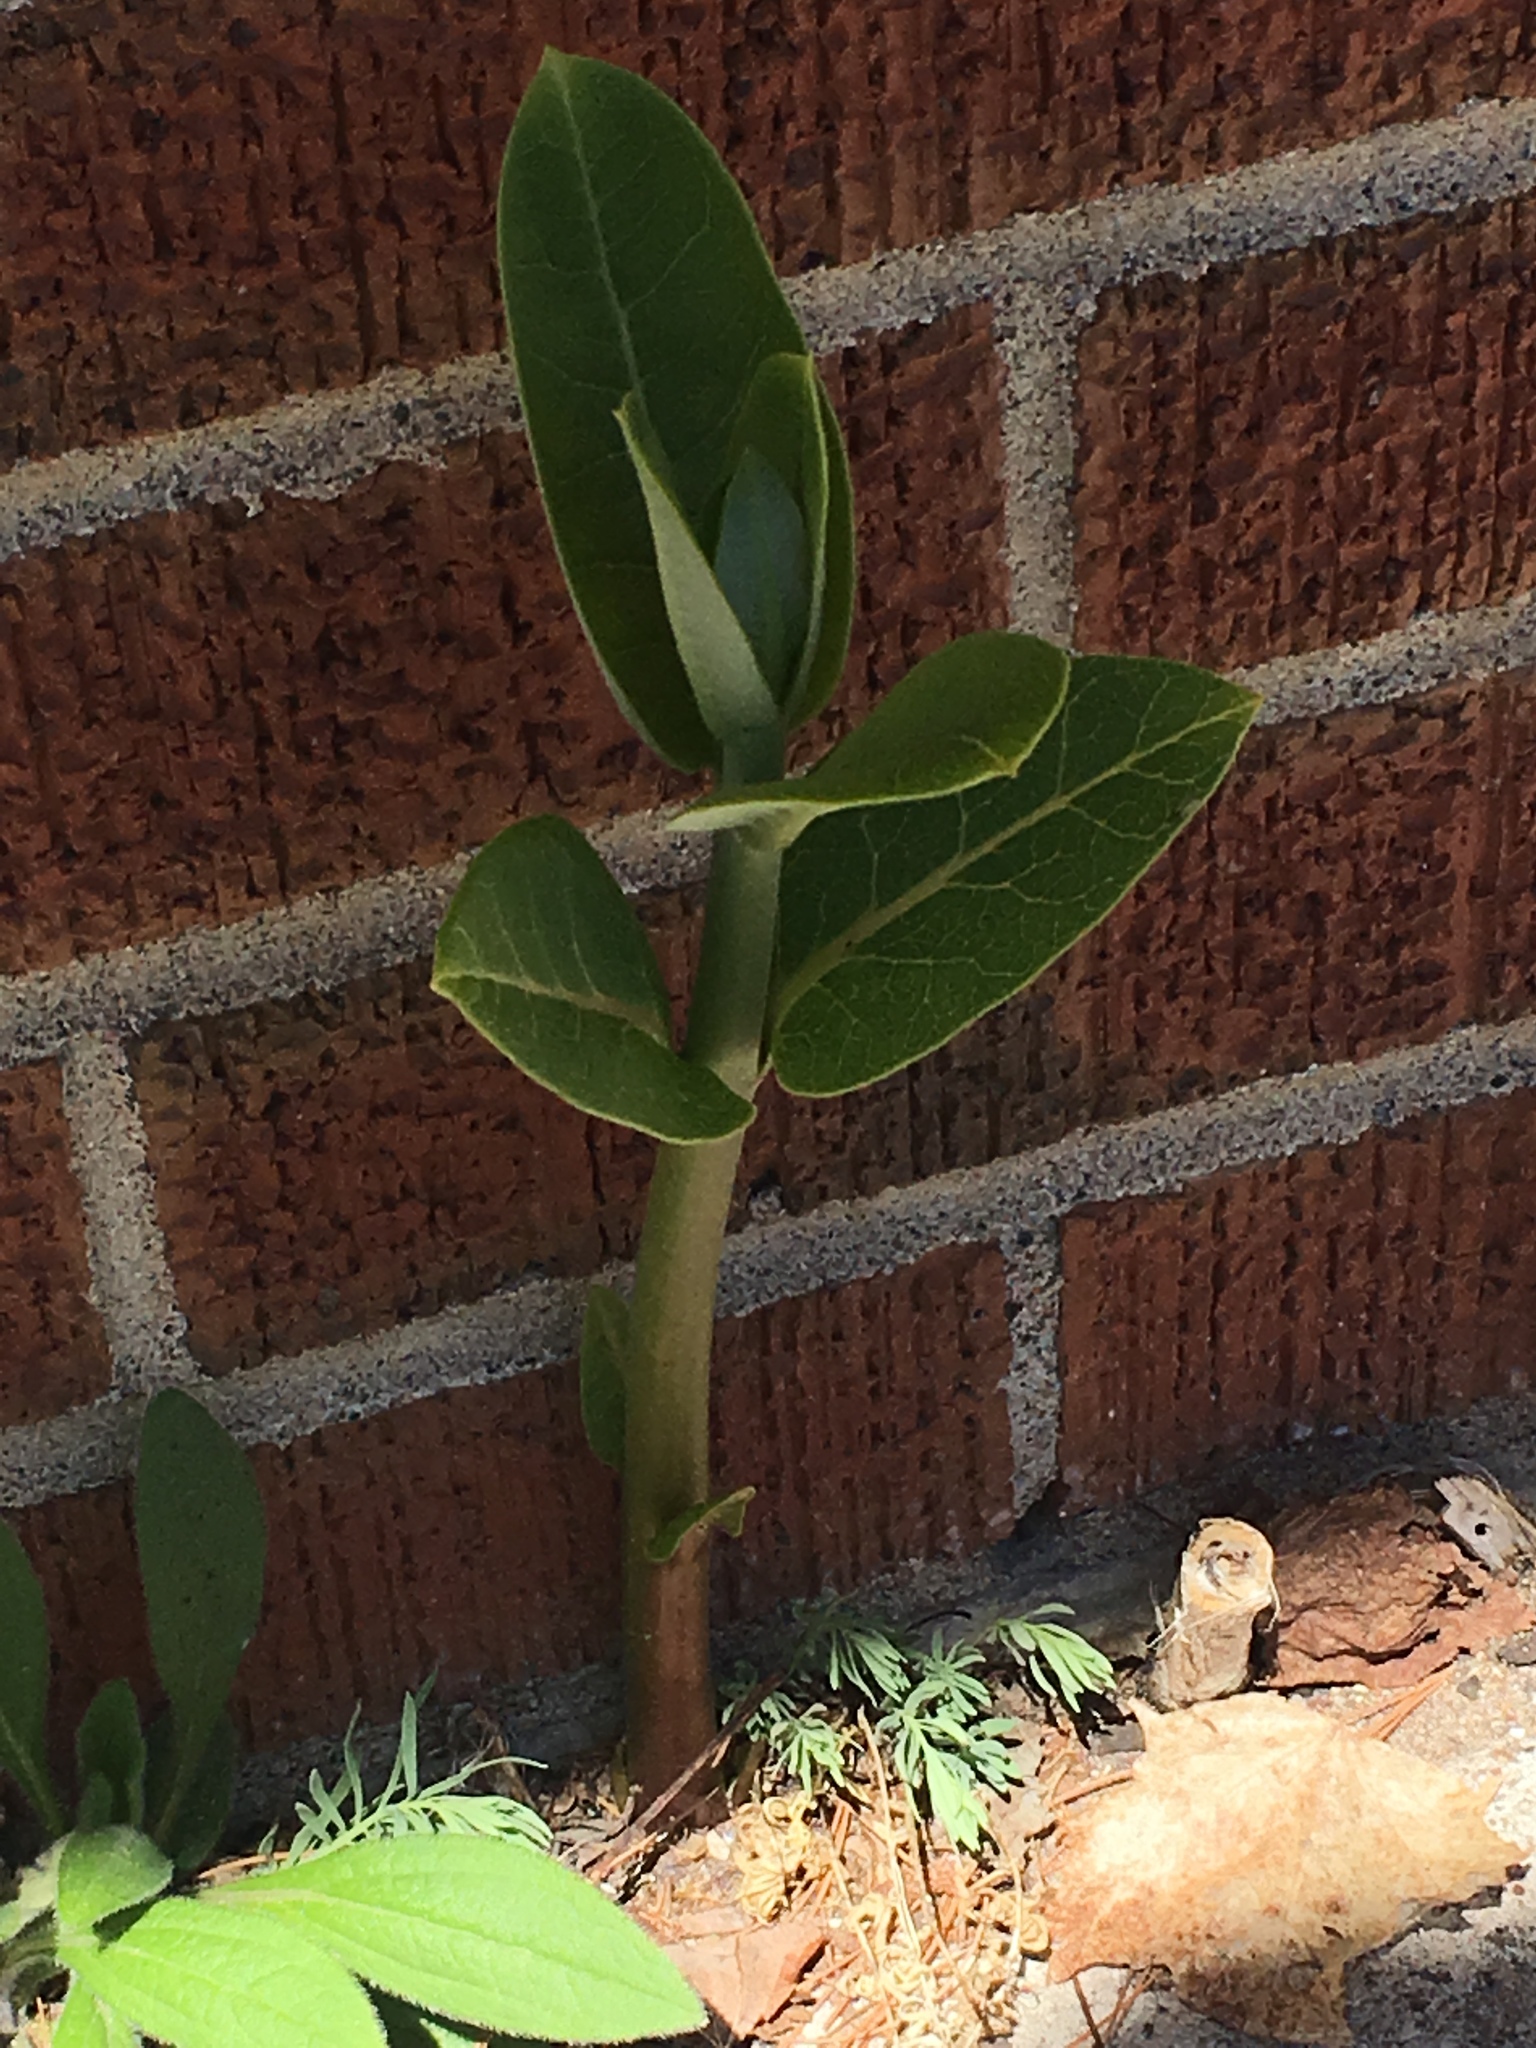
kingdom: Plantae
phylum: Tracheophyta
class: Magnoliopsida
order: Gentianales
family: Apocynaceae
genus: Asclepias
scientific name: Asclepias syriaca
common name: Common milkweed
